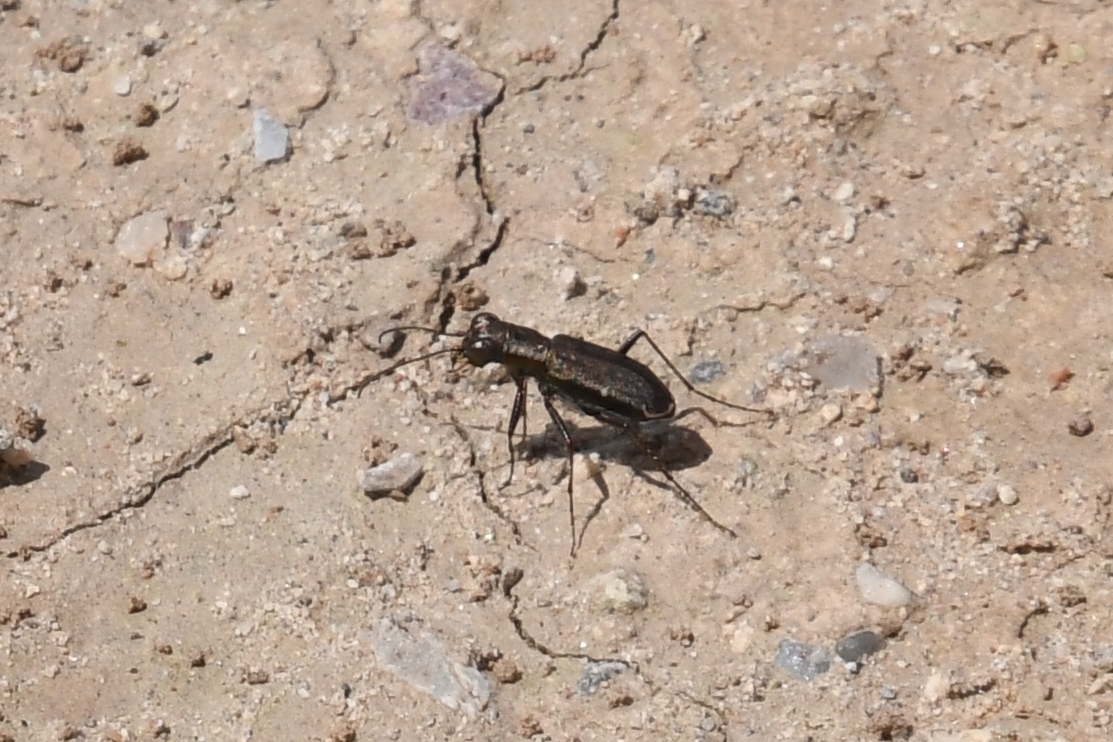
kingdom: Animalia
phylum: Arthropoda
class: Insecta
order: Coleoptera
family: Carabidae
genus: Brasiella
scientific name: Brasiella viridisticta
